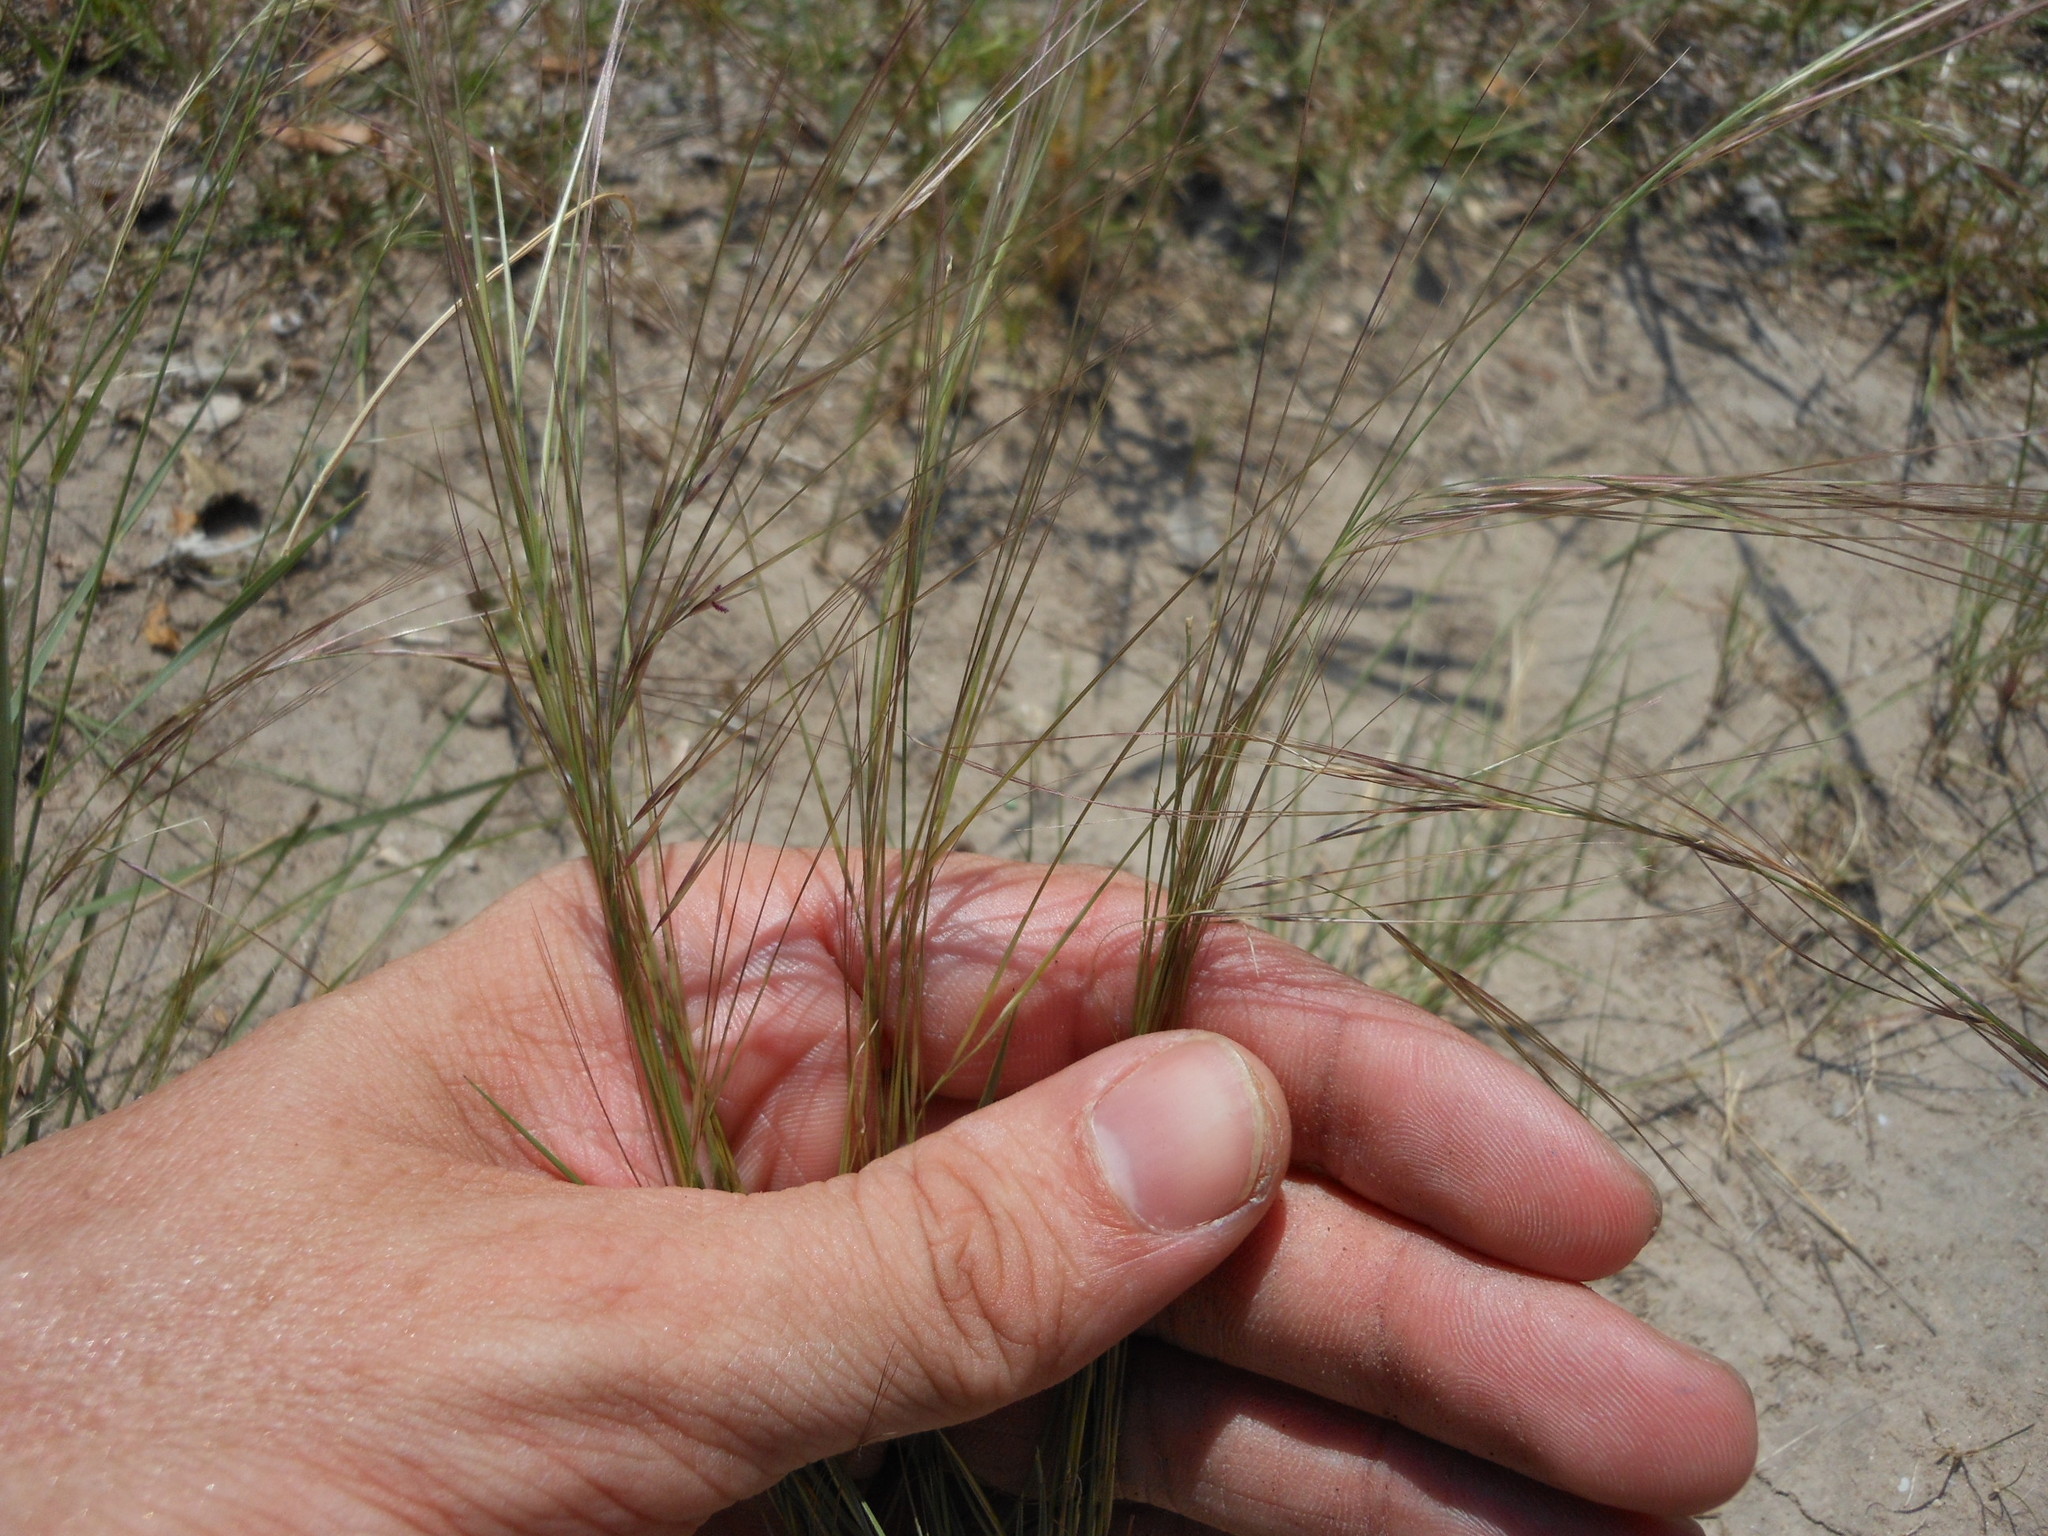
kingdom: Plantae
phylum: Tracheophyta
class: Liliopsida
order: Poales
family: Poaceae
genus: Aristida
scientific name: Aristida purpurea
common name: Purple threeawn
